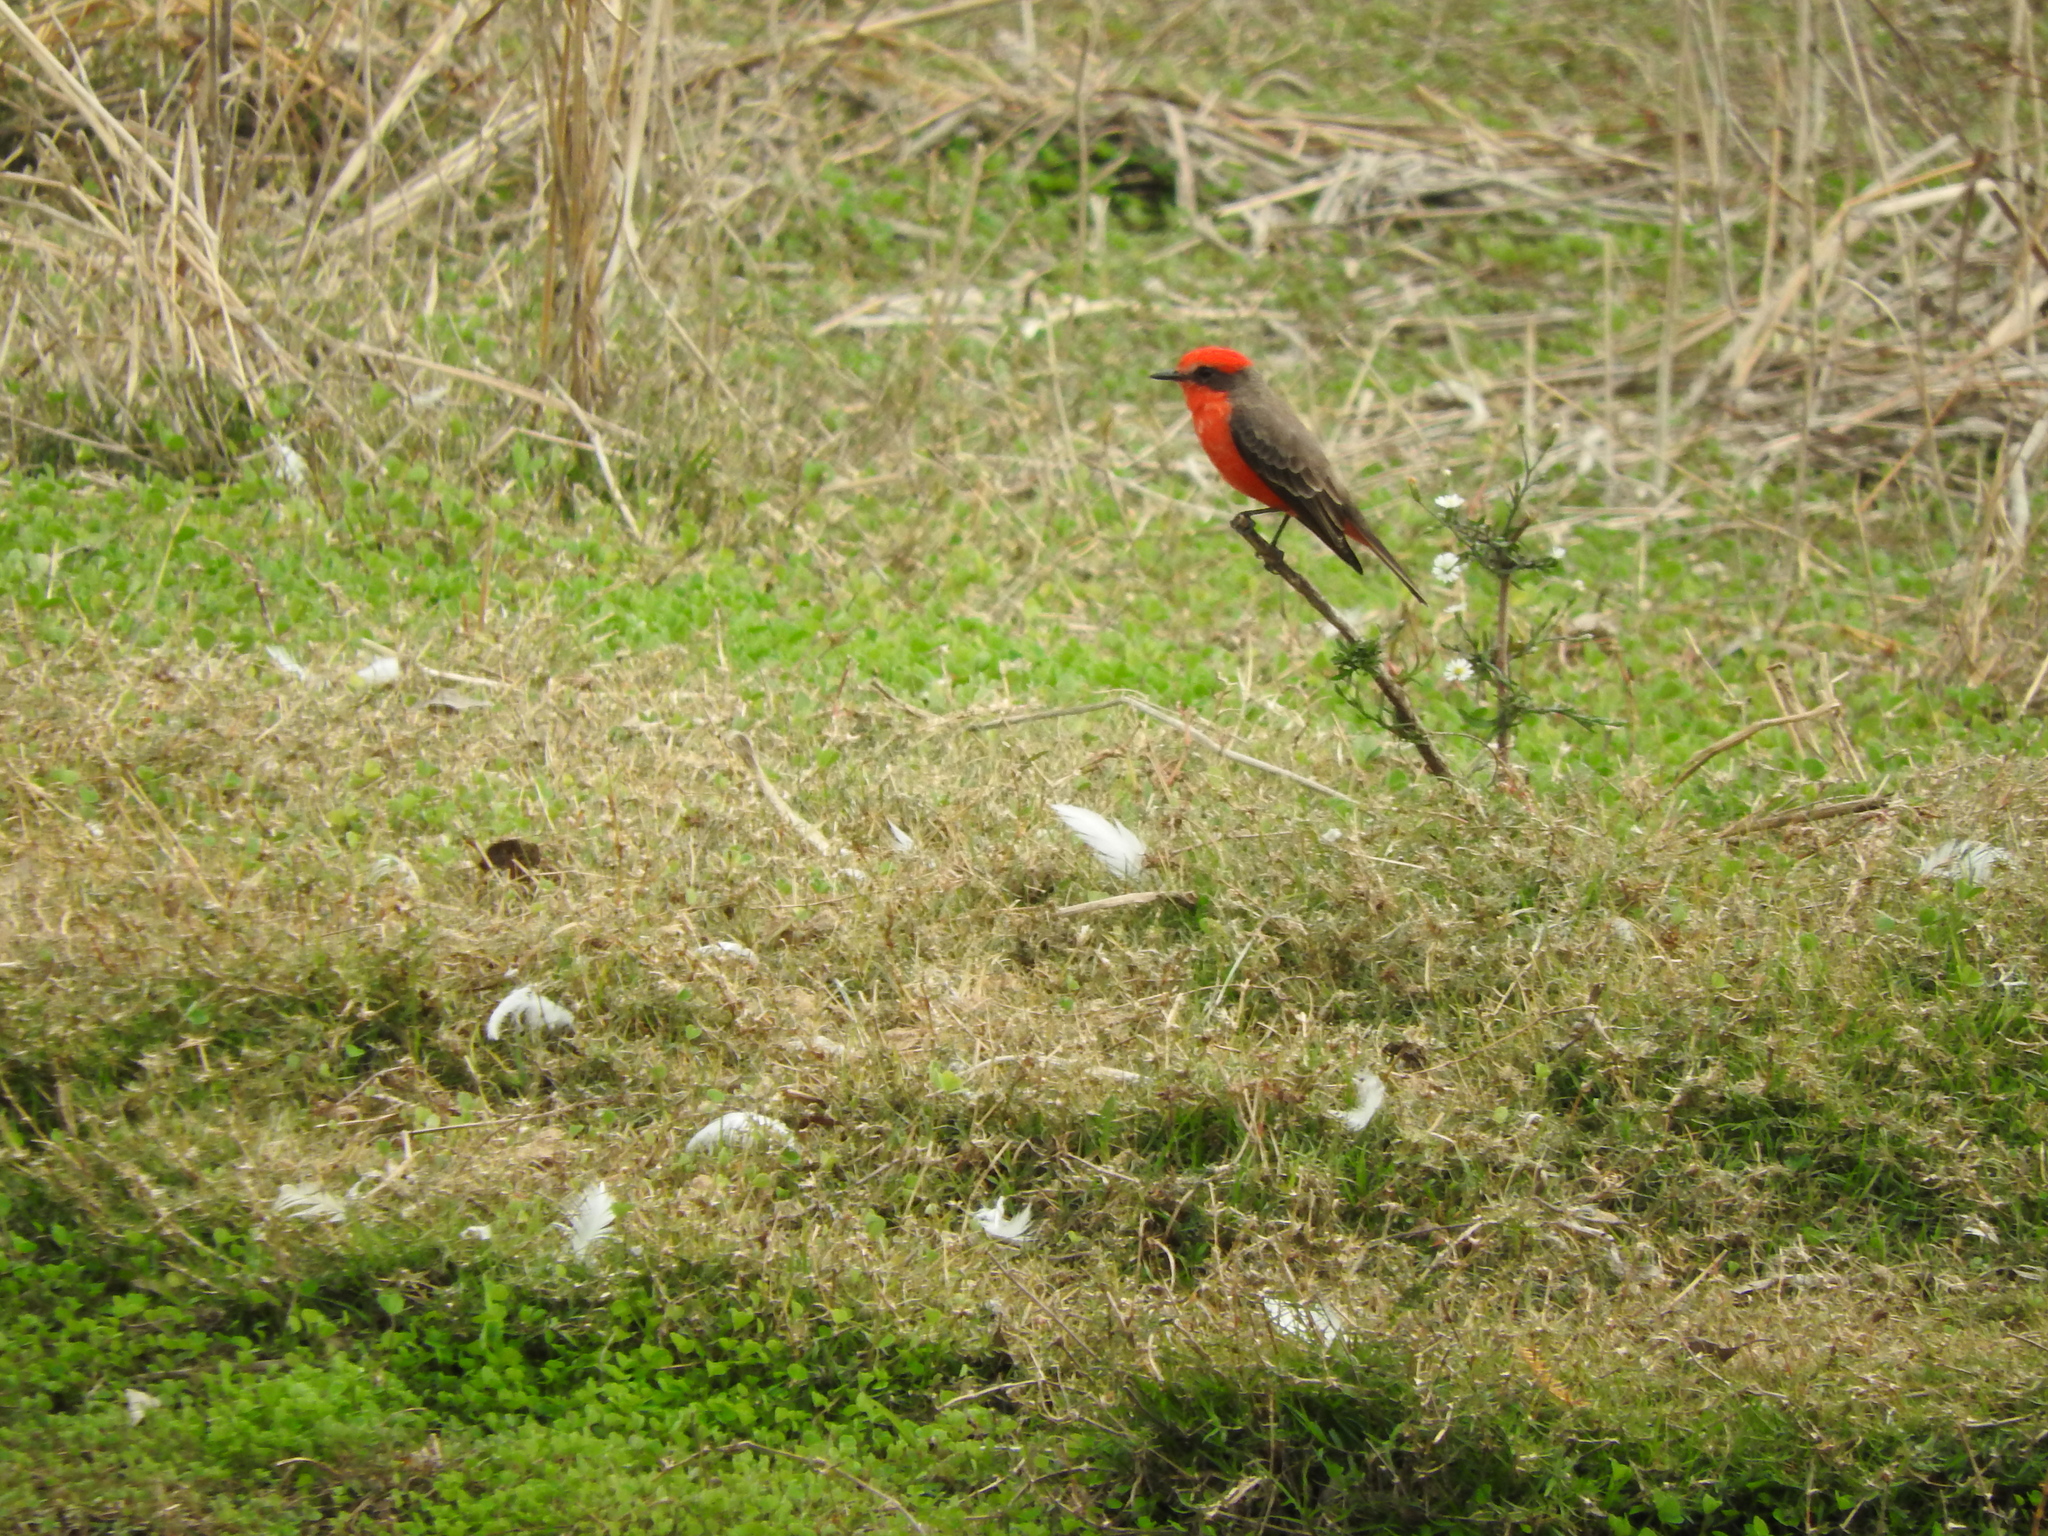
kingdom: Animalia
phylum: Chordata
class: Aves
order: Passeriformes
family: Tyrannidae
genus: Pyrocephalus
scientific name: Pyrocephalus rubinus
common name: Vermilion flycatcher
